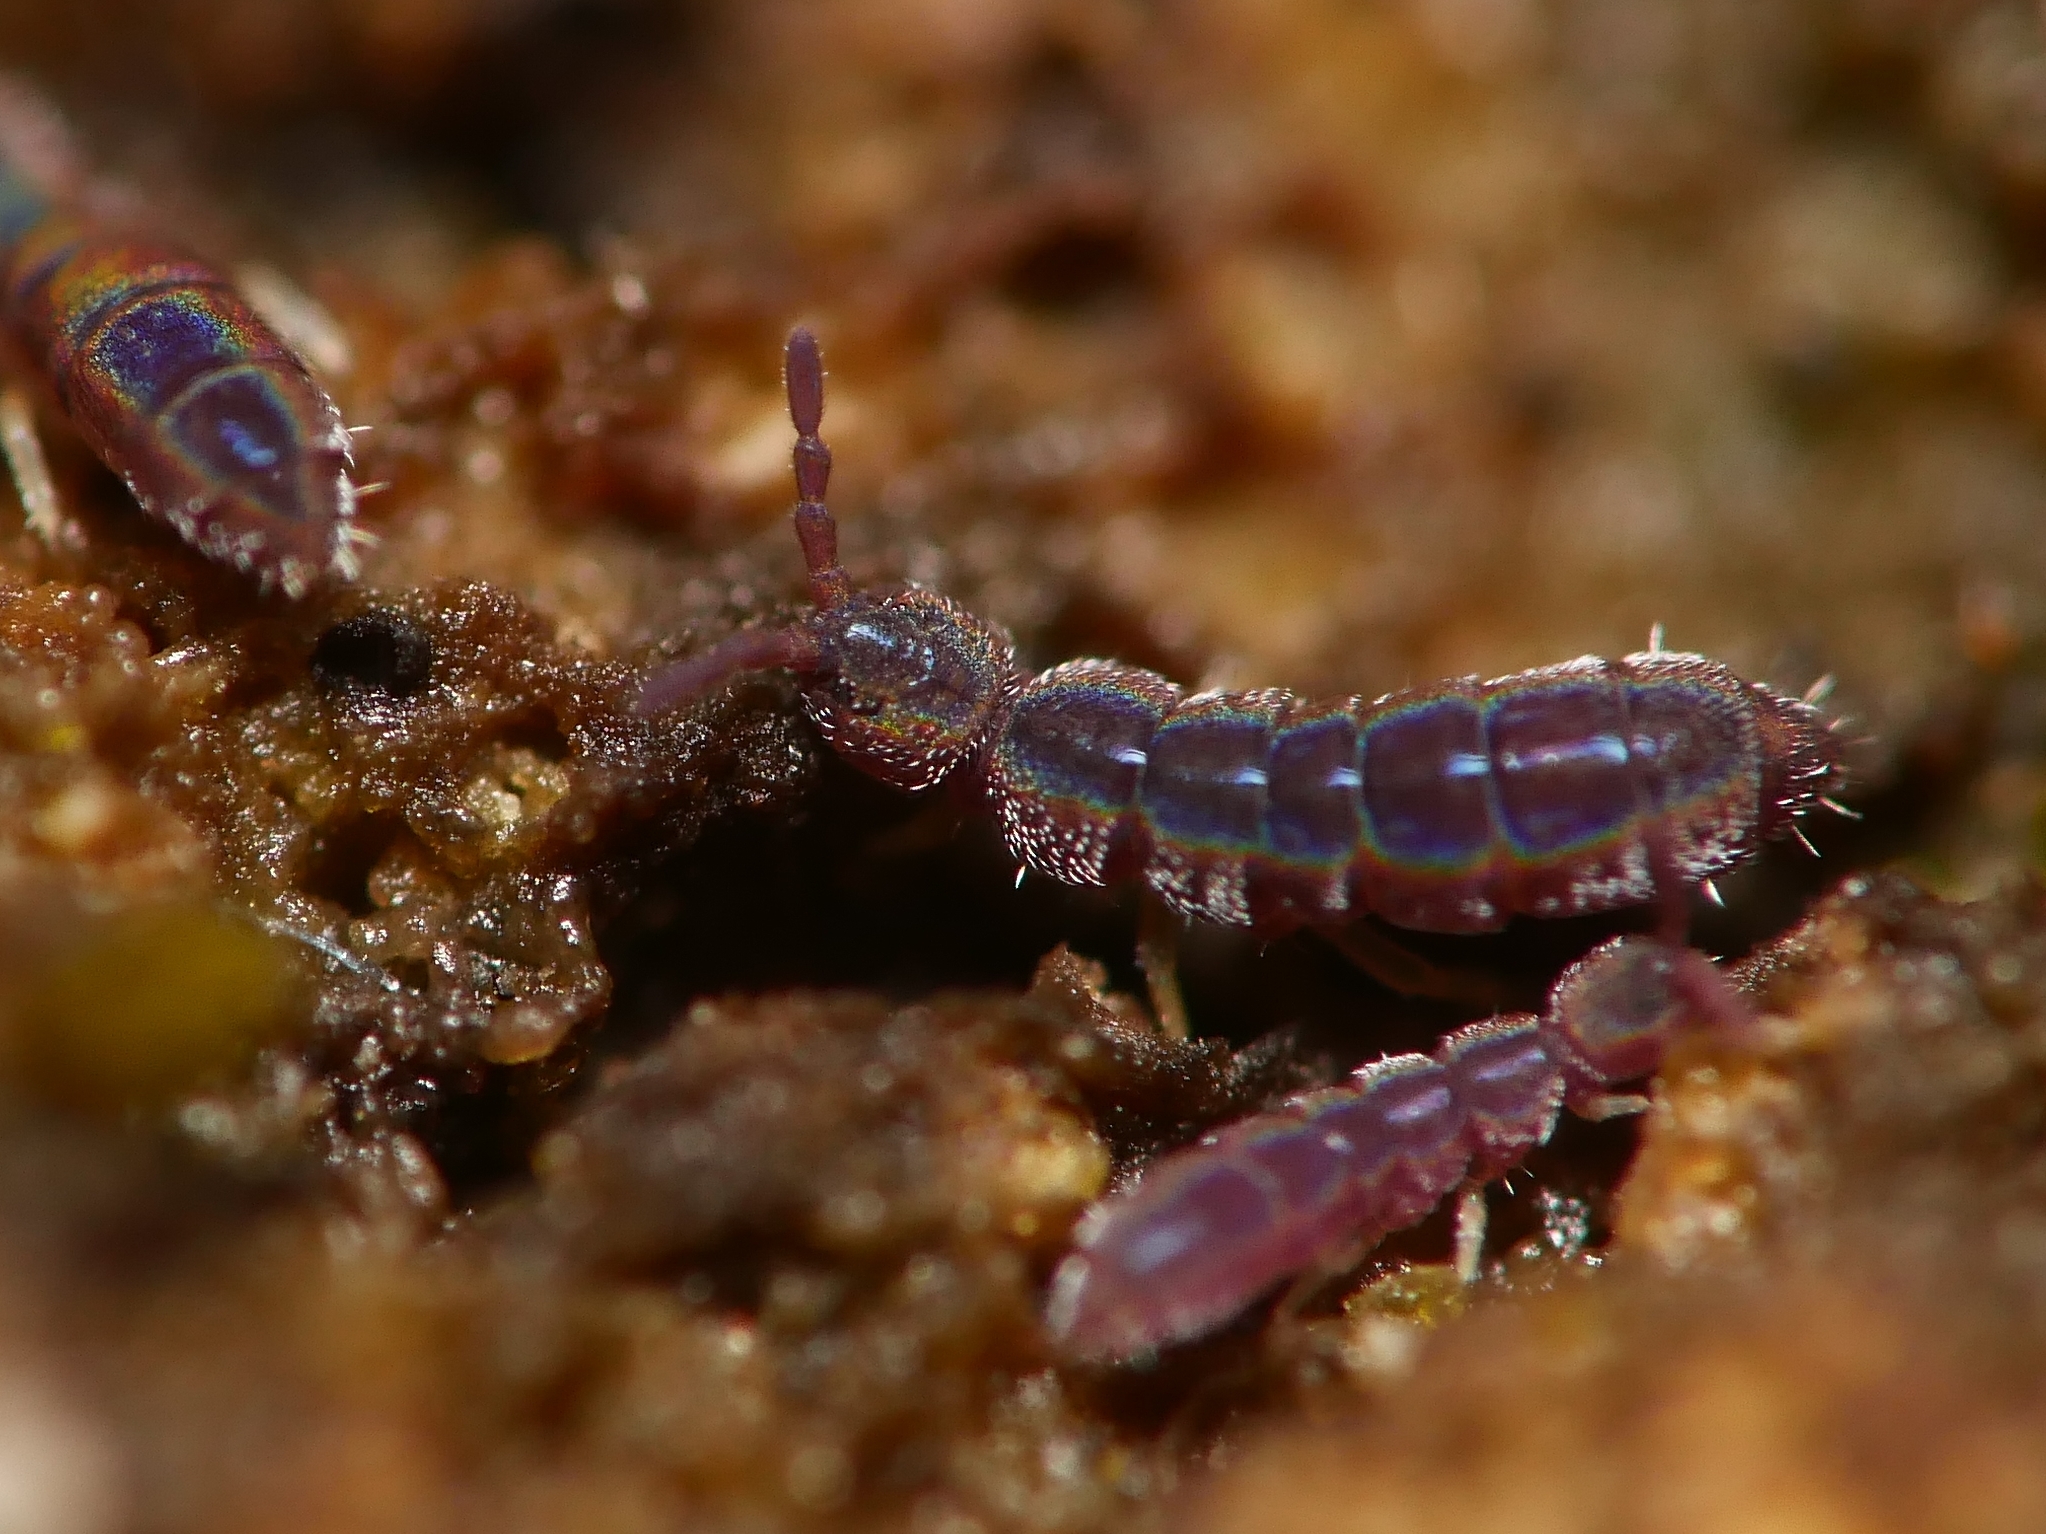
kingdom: Animalia
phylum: Arthropoda
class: Collembola
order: Entomobryomorpha
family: Isotomidae
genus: Vertagopus
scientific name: Vertagopus asiaticus
